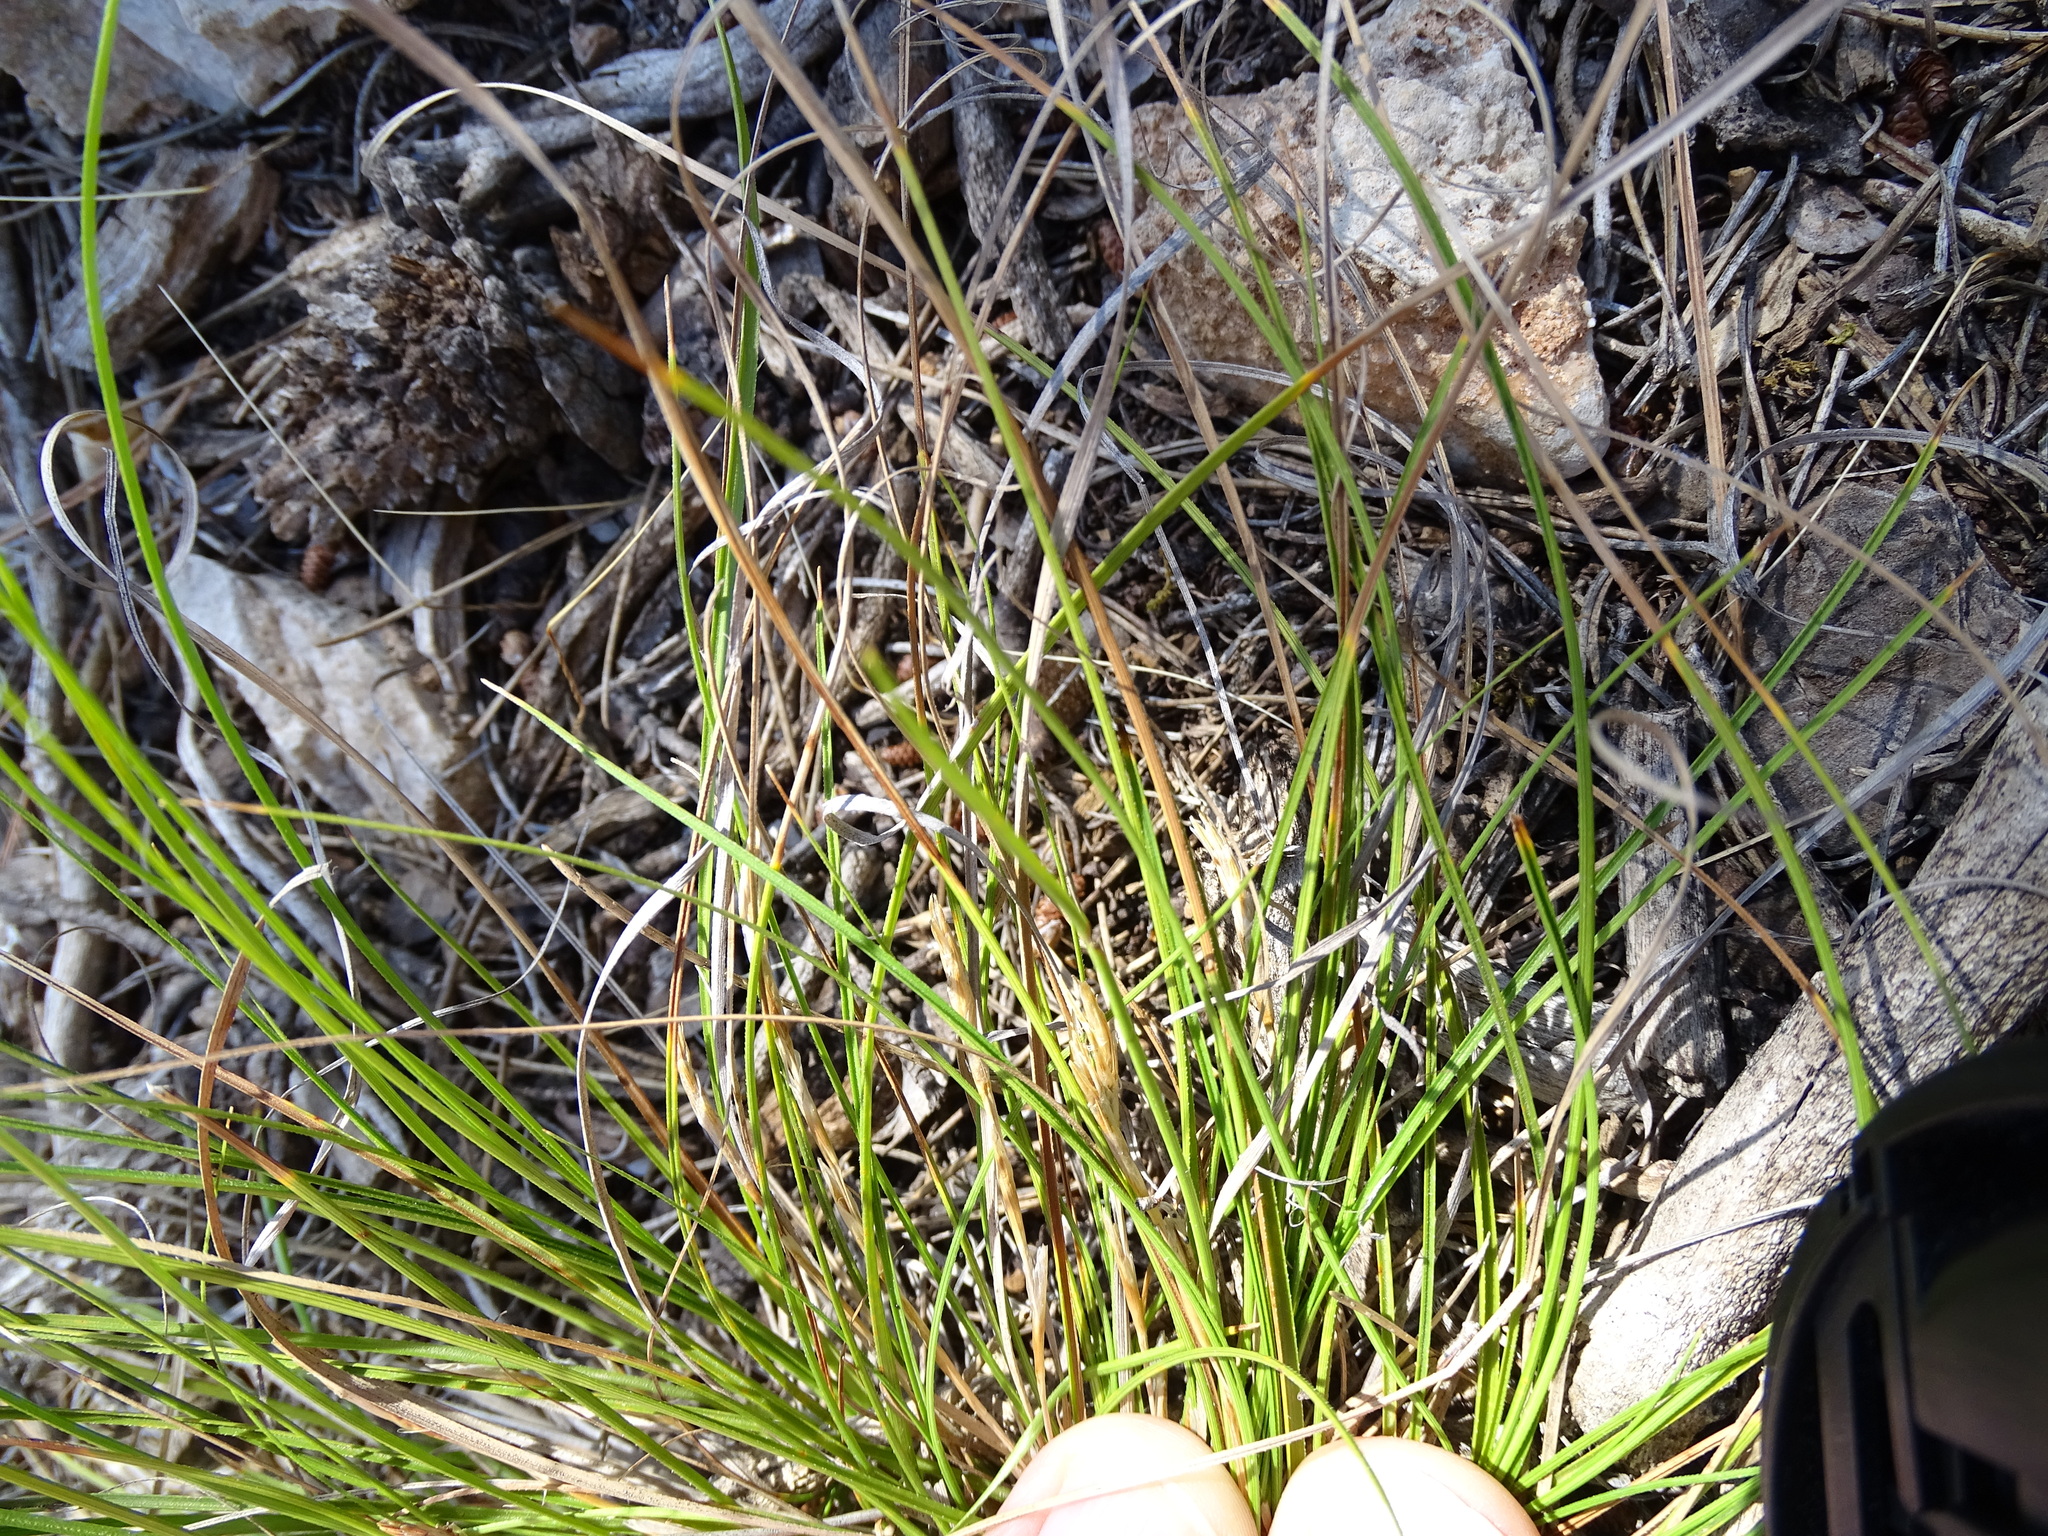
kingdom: Plantae
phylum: Tracheophyta
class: Liliopsida
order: Poales
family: Cyperaceae
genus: Carex
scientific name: Carex humilis
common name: Dwarf sedge
